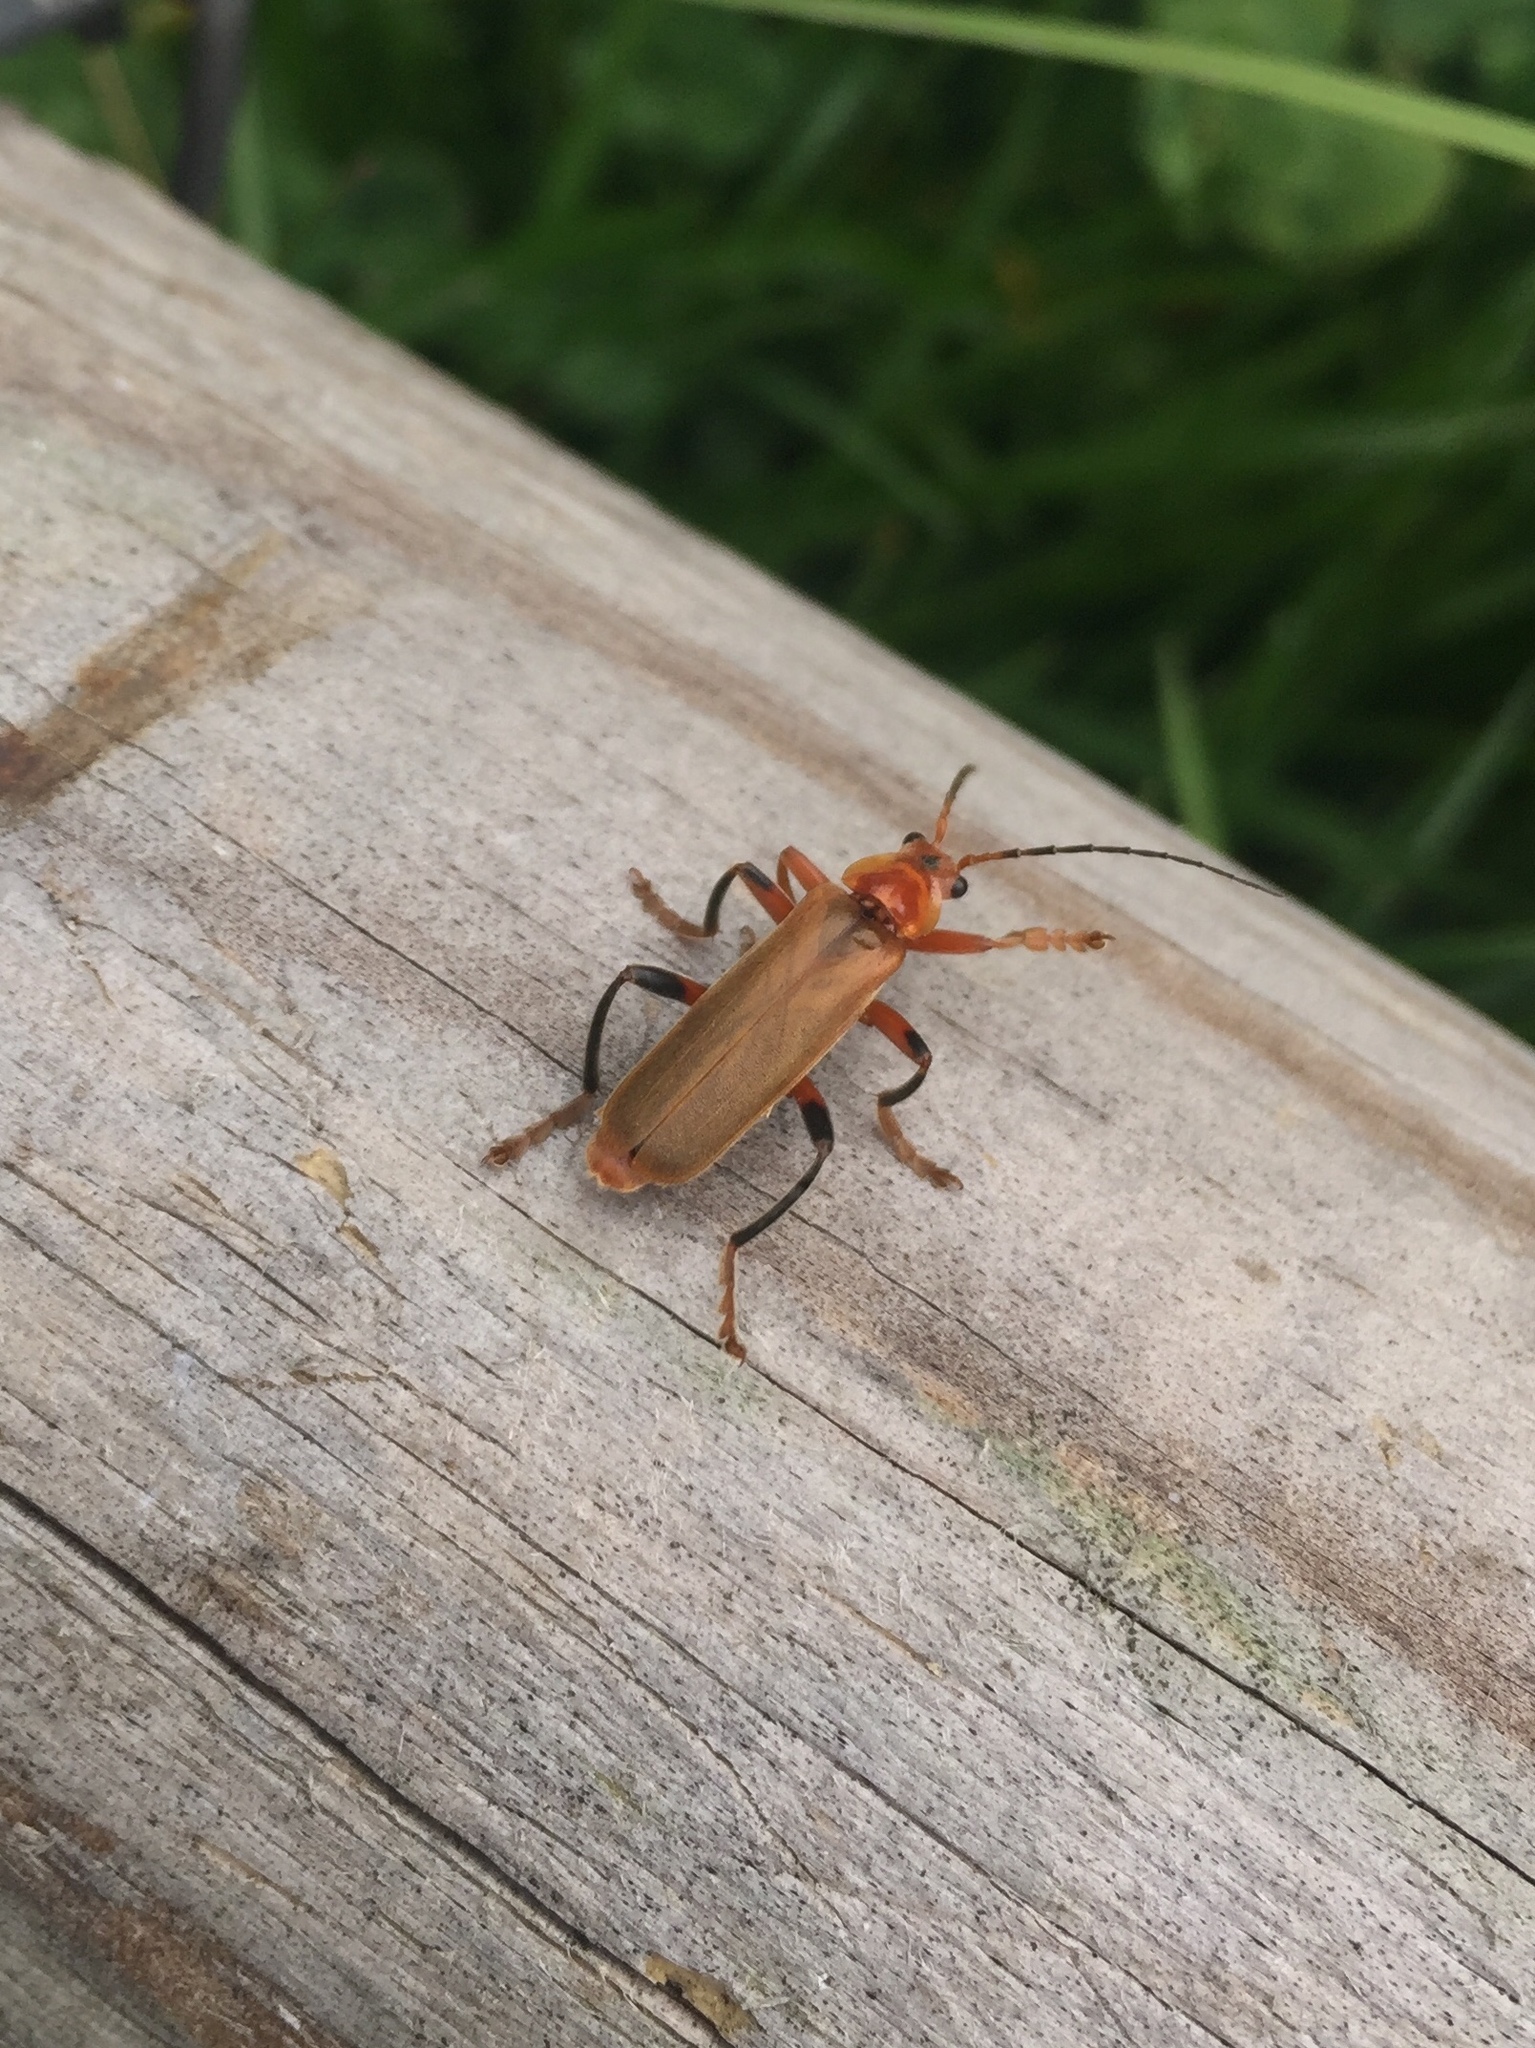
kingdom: Animalia
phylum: Arthropoda
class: Insecta
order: Coleoptera
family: Cantharidae
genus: Cantharis
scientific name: Cantharis livida
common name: Livid soldier beetle
